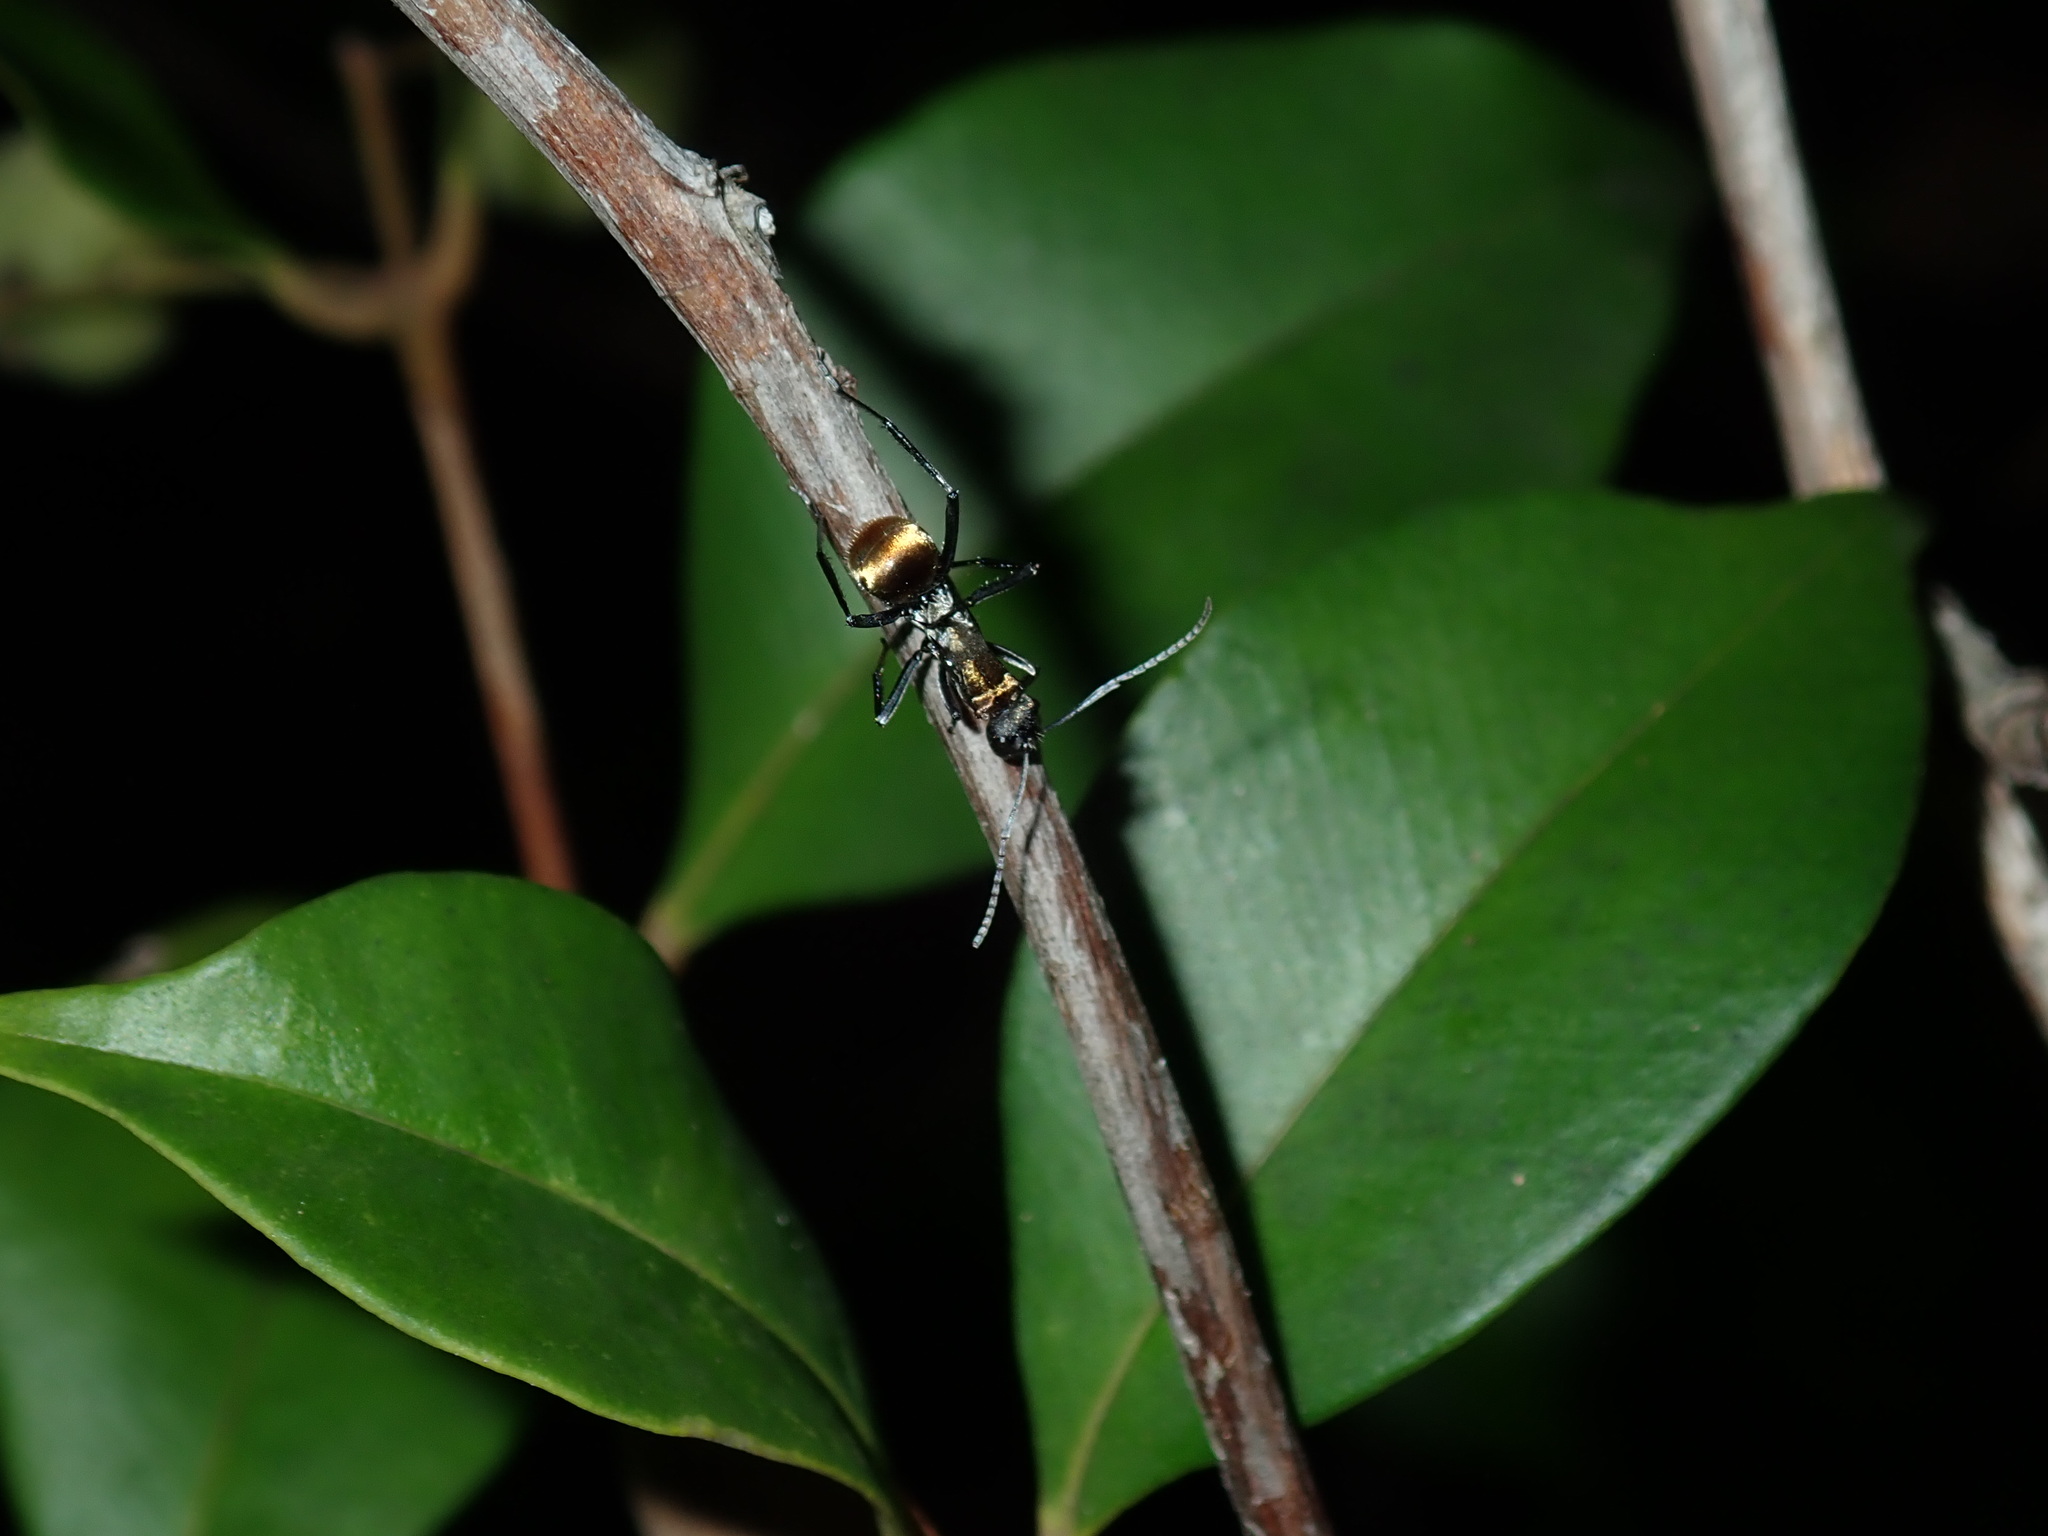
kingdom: Animalia
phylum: Arthropoda
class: Insecta
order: Hymenoptera
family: Formicidae
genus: Polyrhachis
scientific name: Polyrhachis ammon
